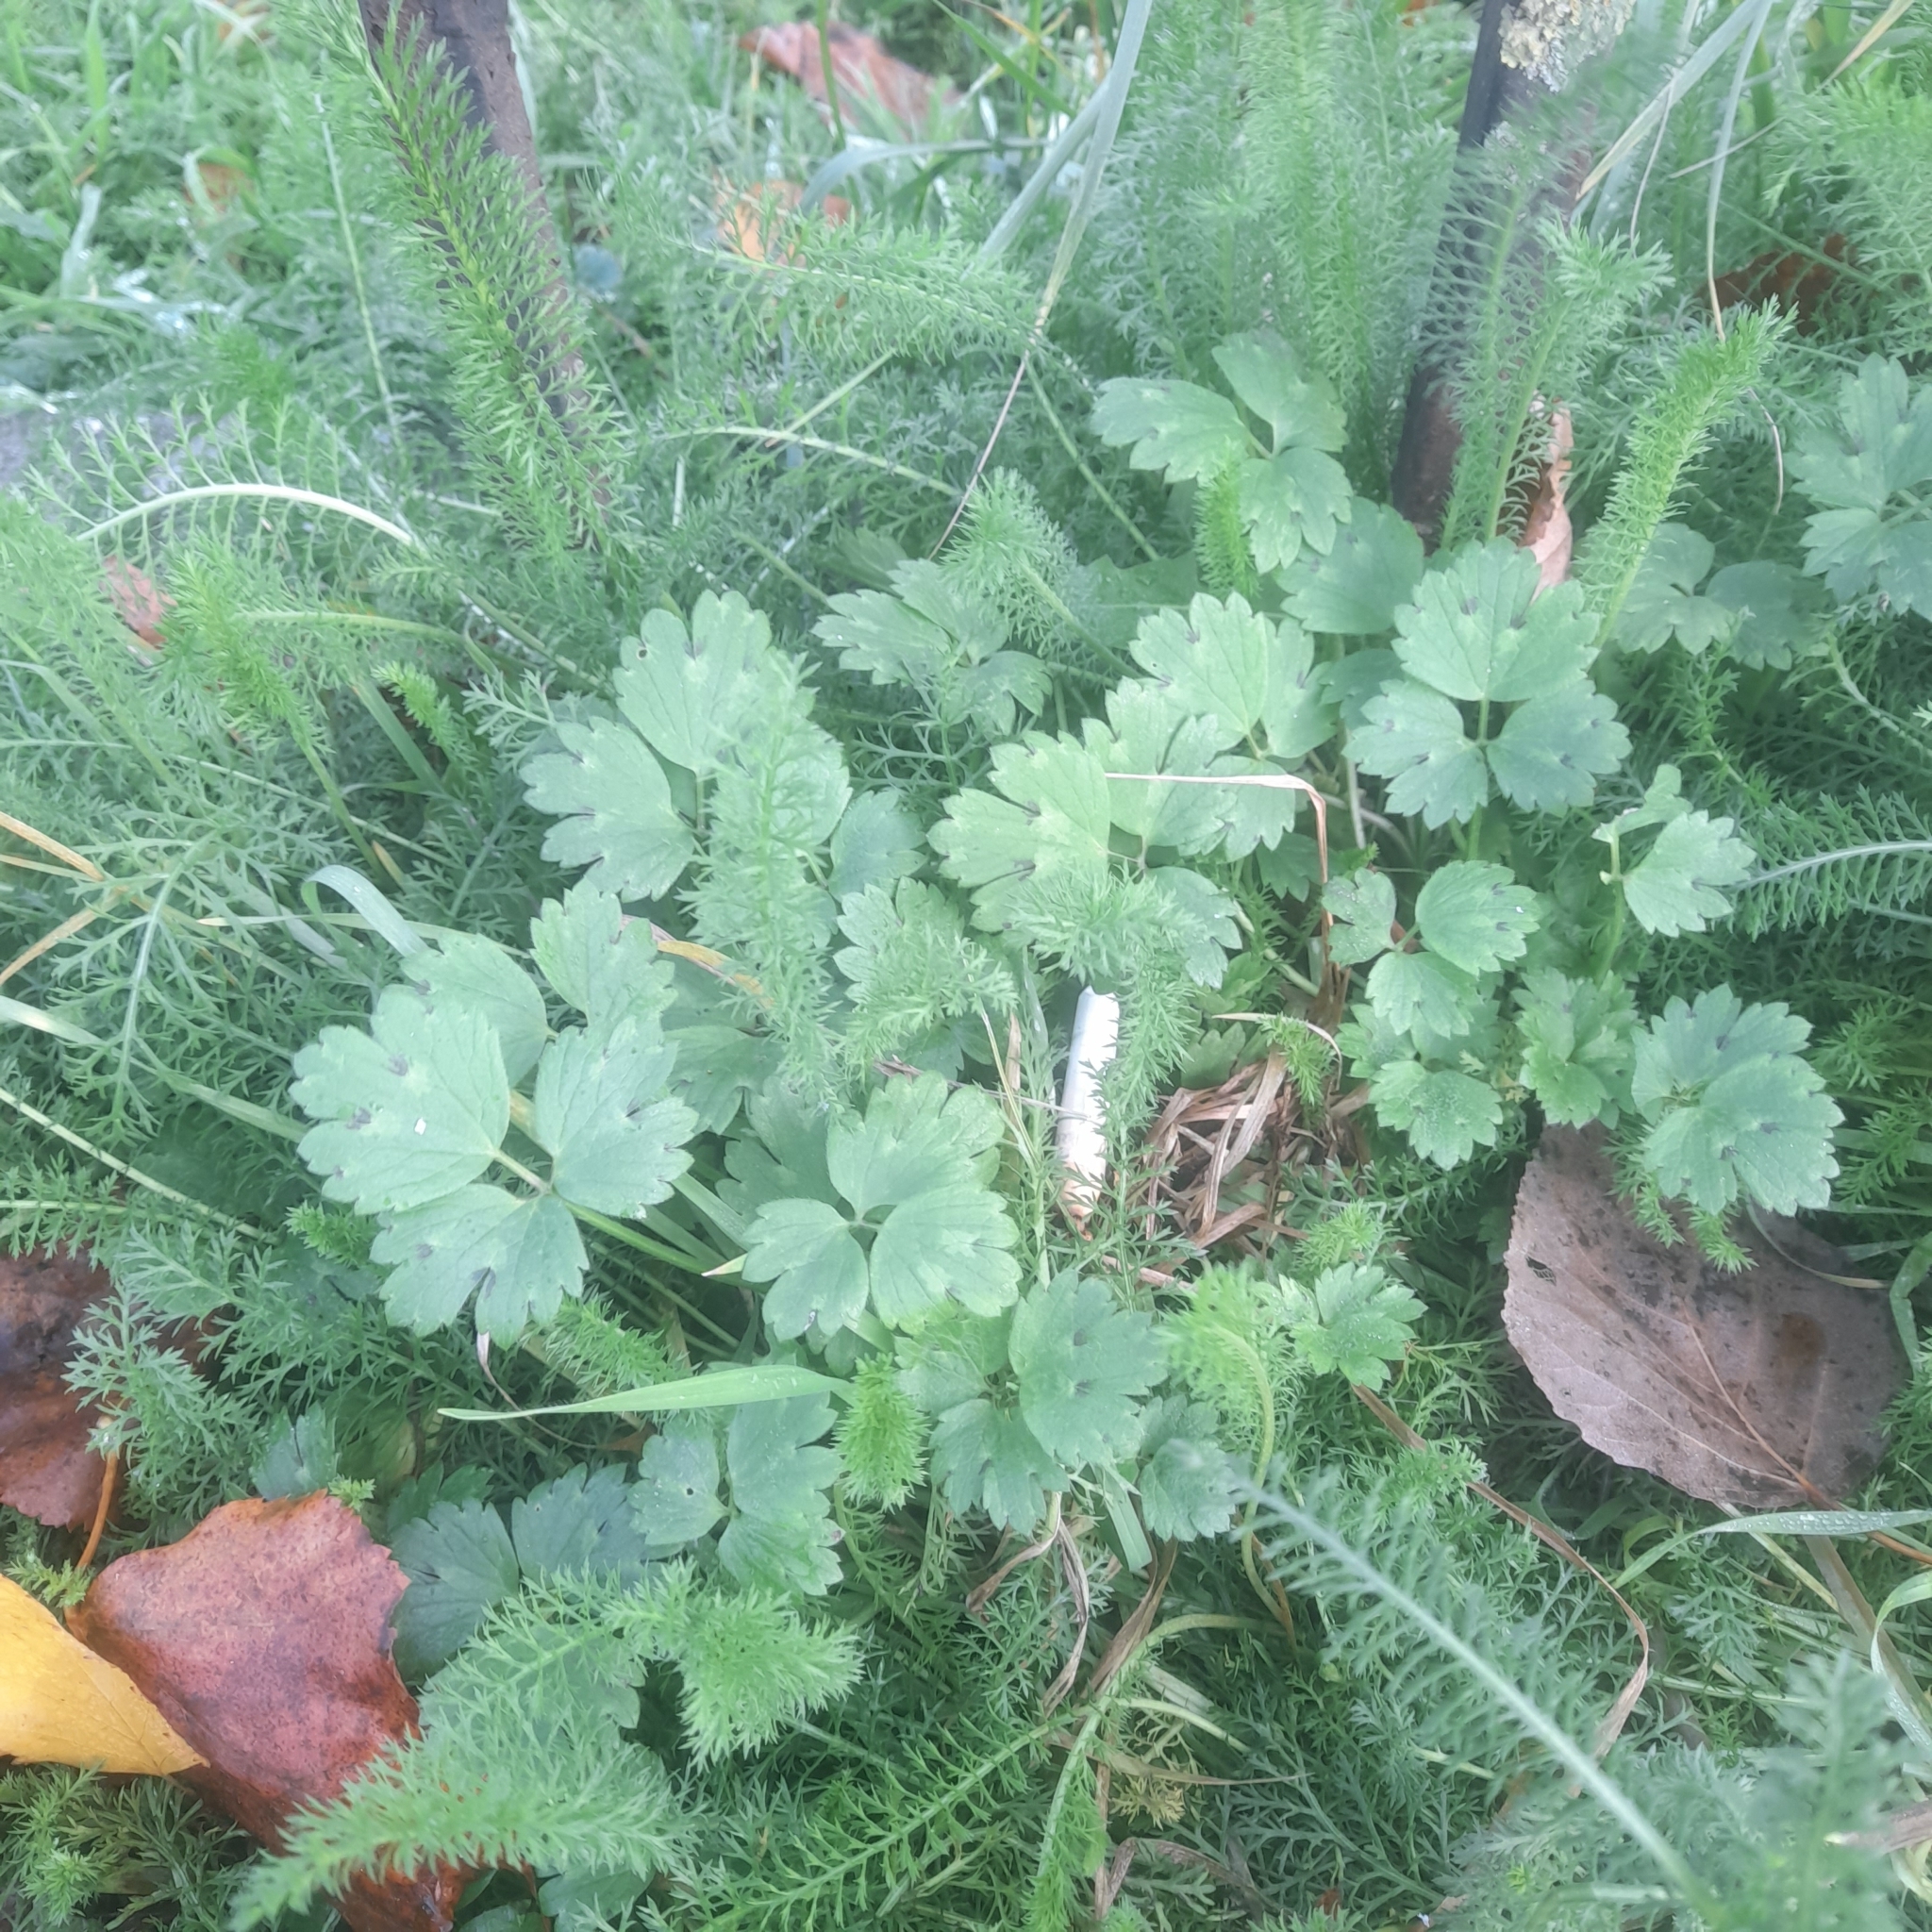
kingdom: Plantae
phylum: Tracheophyta
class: Magnoliopsida
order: Ranunculales
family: Ranunculaceae
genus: Ranunculus
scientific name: Ranunculus repens
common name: Creeping buttercup
